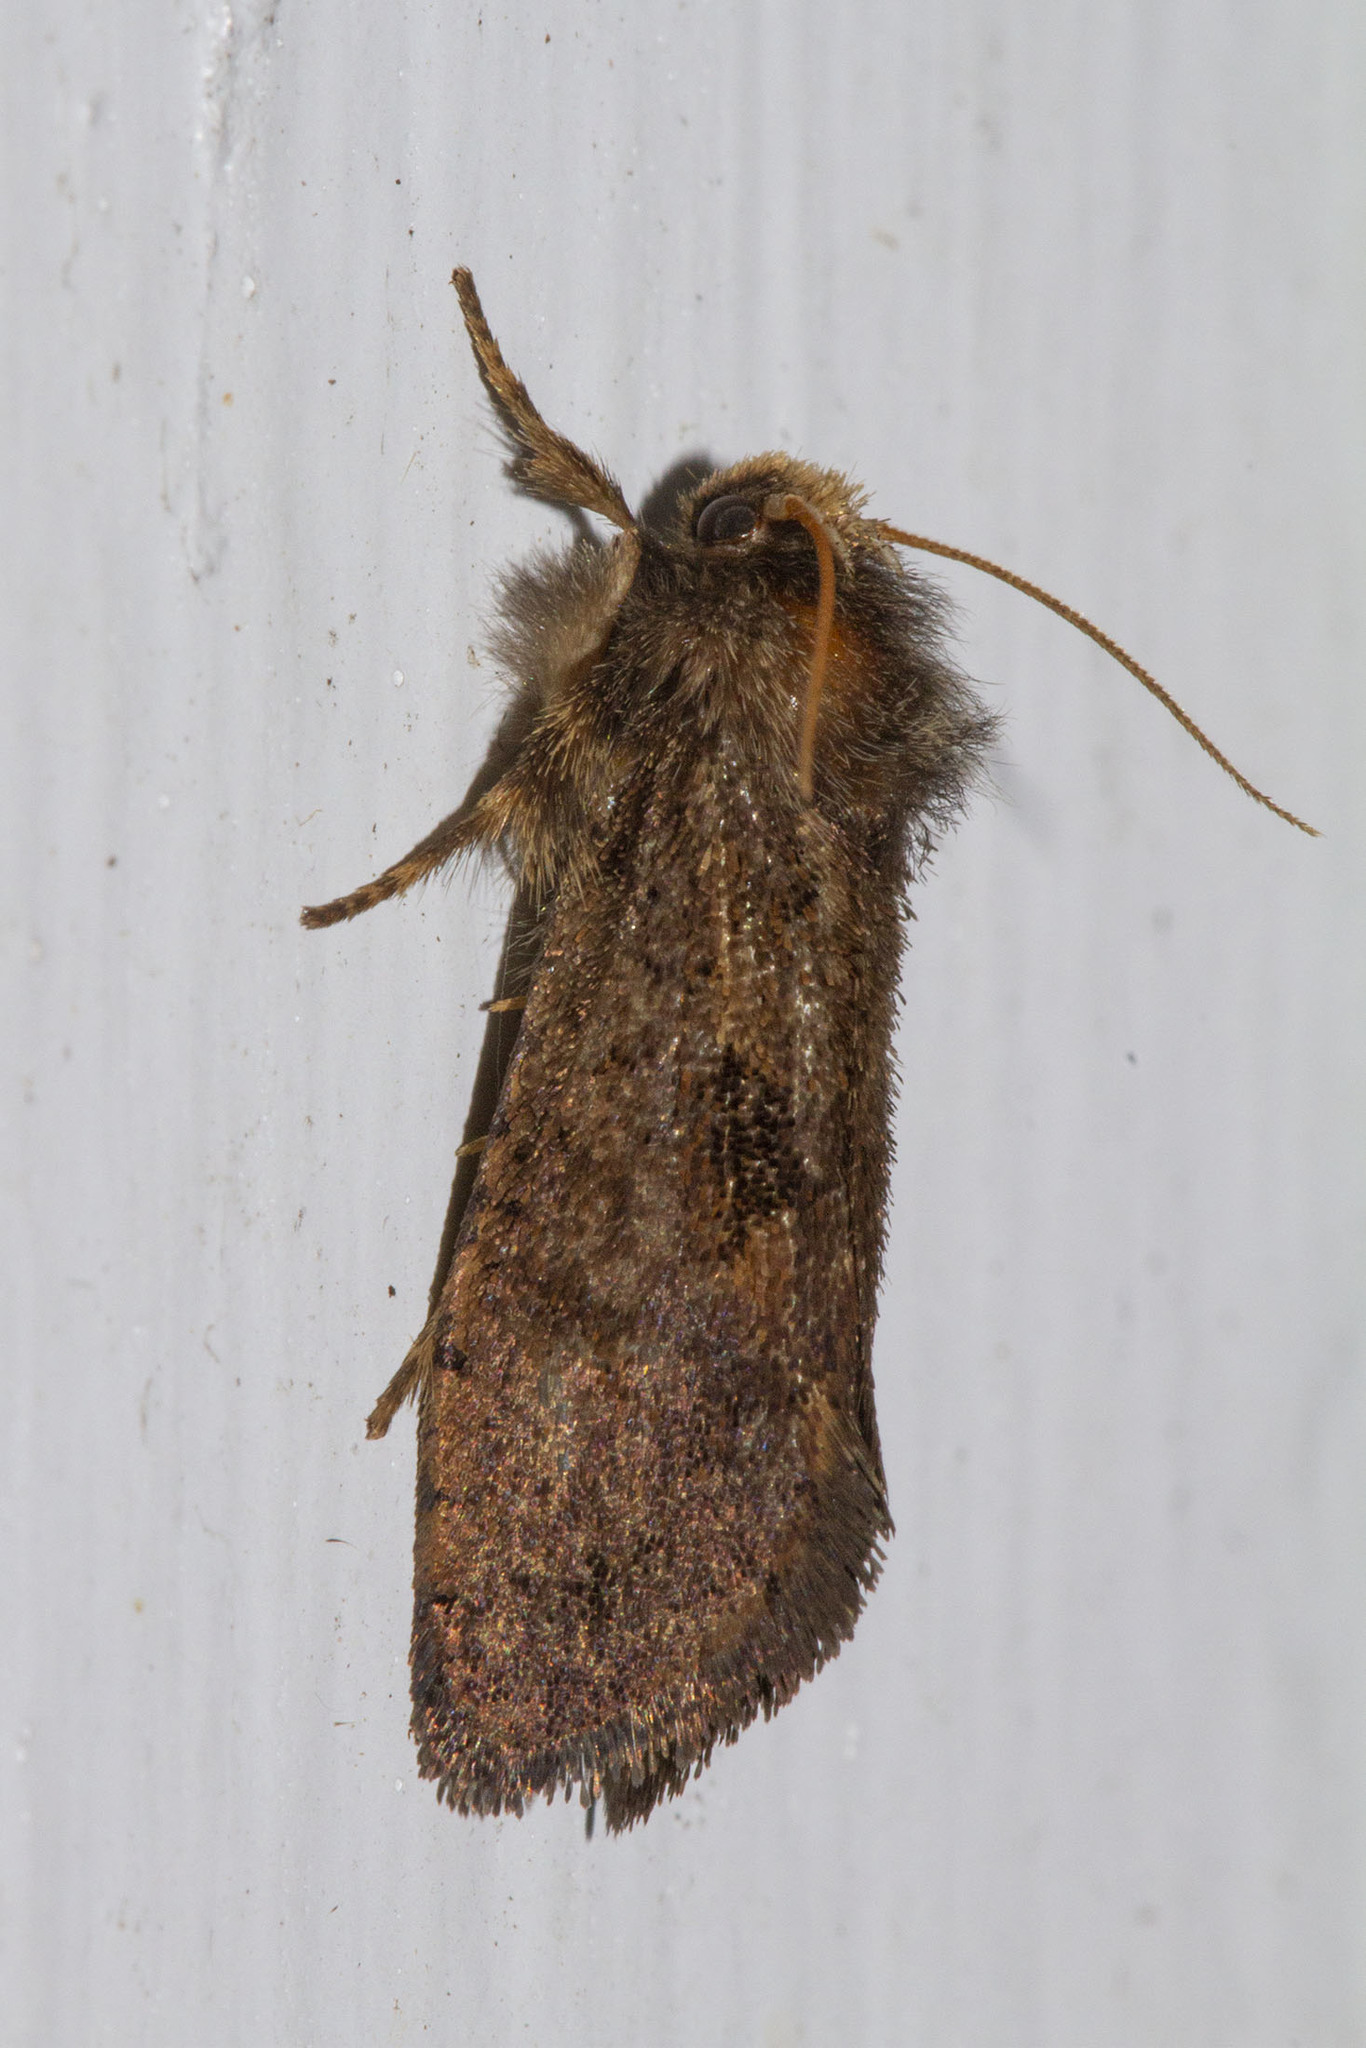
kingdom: Animalia
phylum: Arthropoda
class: Insecta
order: Lepidoptera
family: Tineidae
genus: Acrolophus
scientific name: Acrolophus mora
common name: Dark acrolophus
